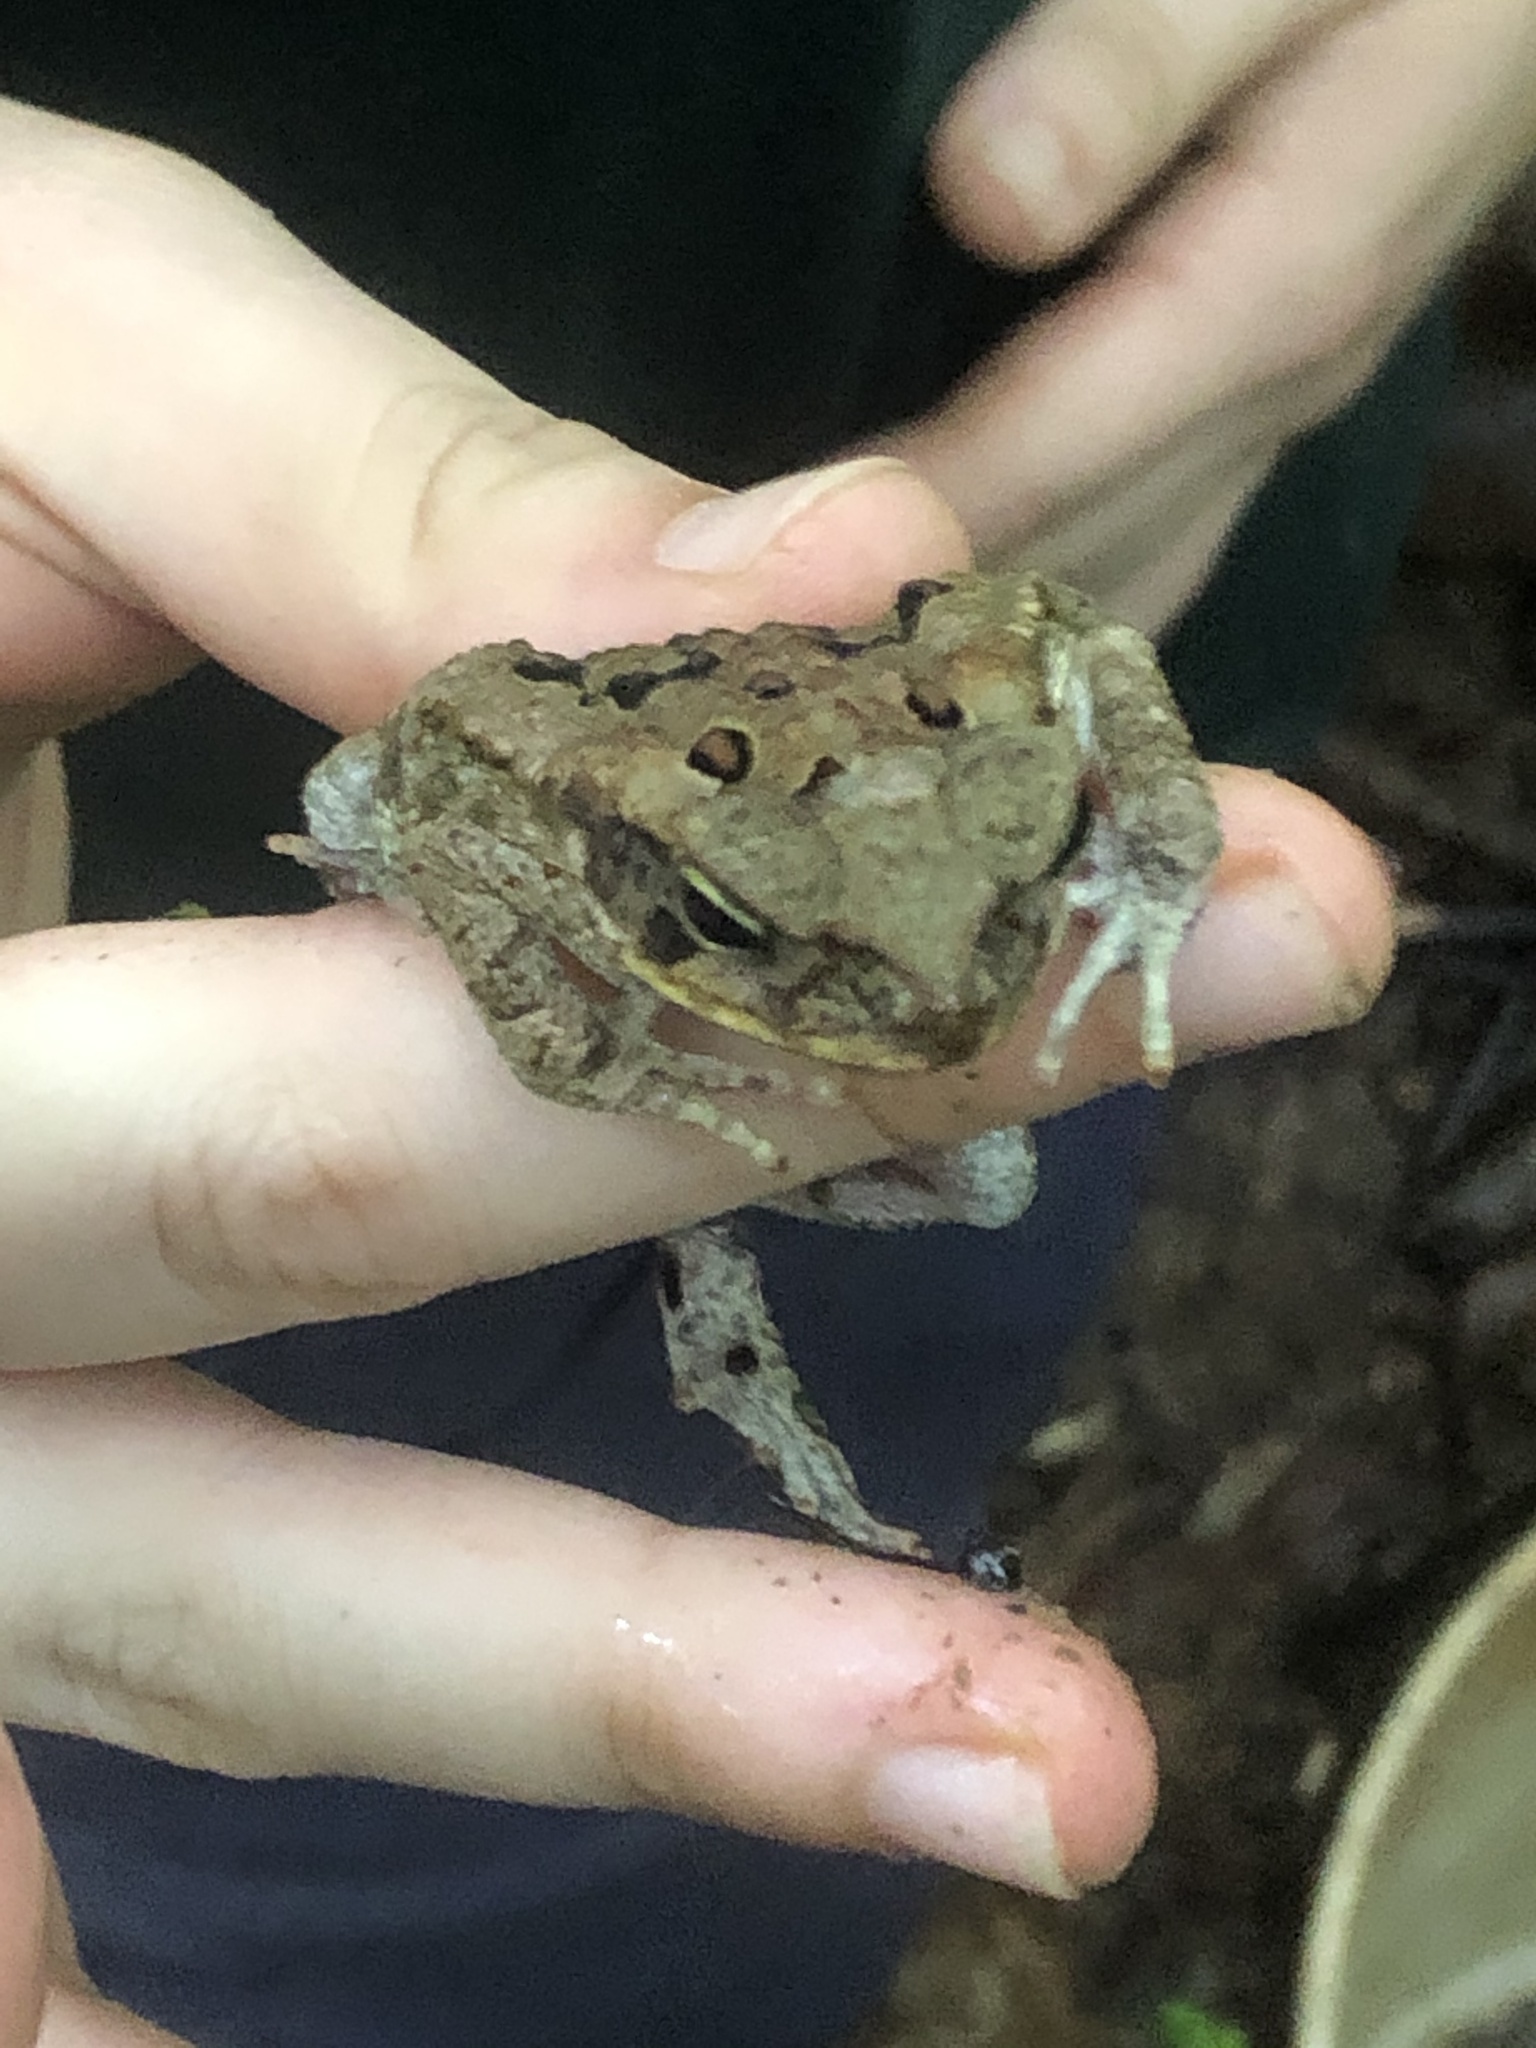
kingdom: Animalia
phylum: Chordata
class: Amphibia
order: Anura
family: Bufonidae
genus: Rhinella
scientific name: Rhinella marina
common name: Cane toad
